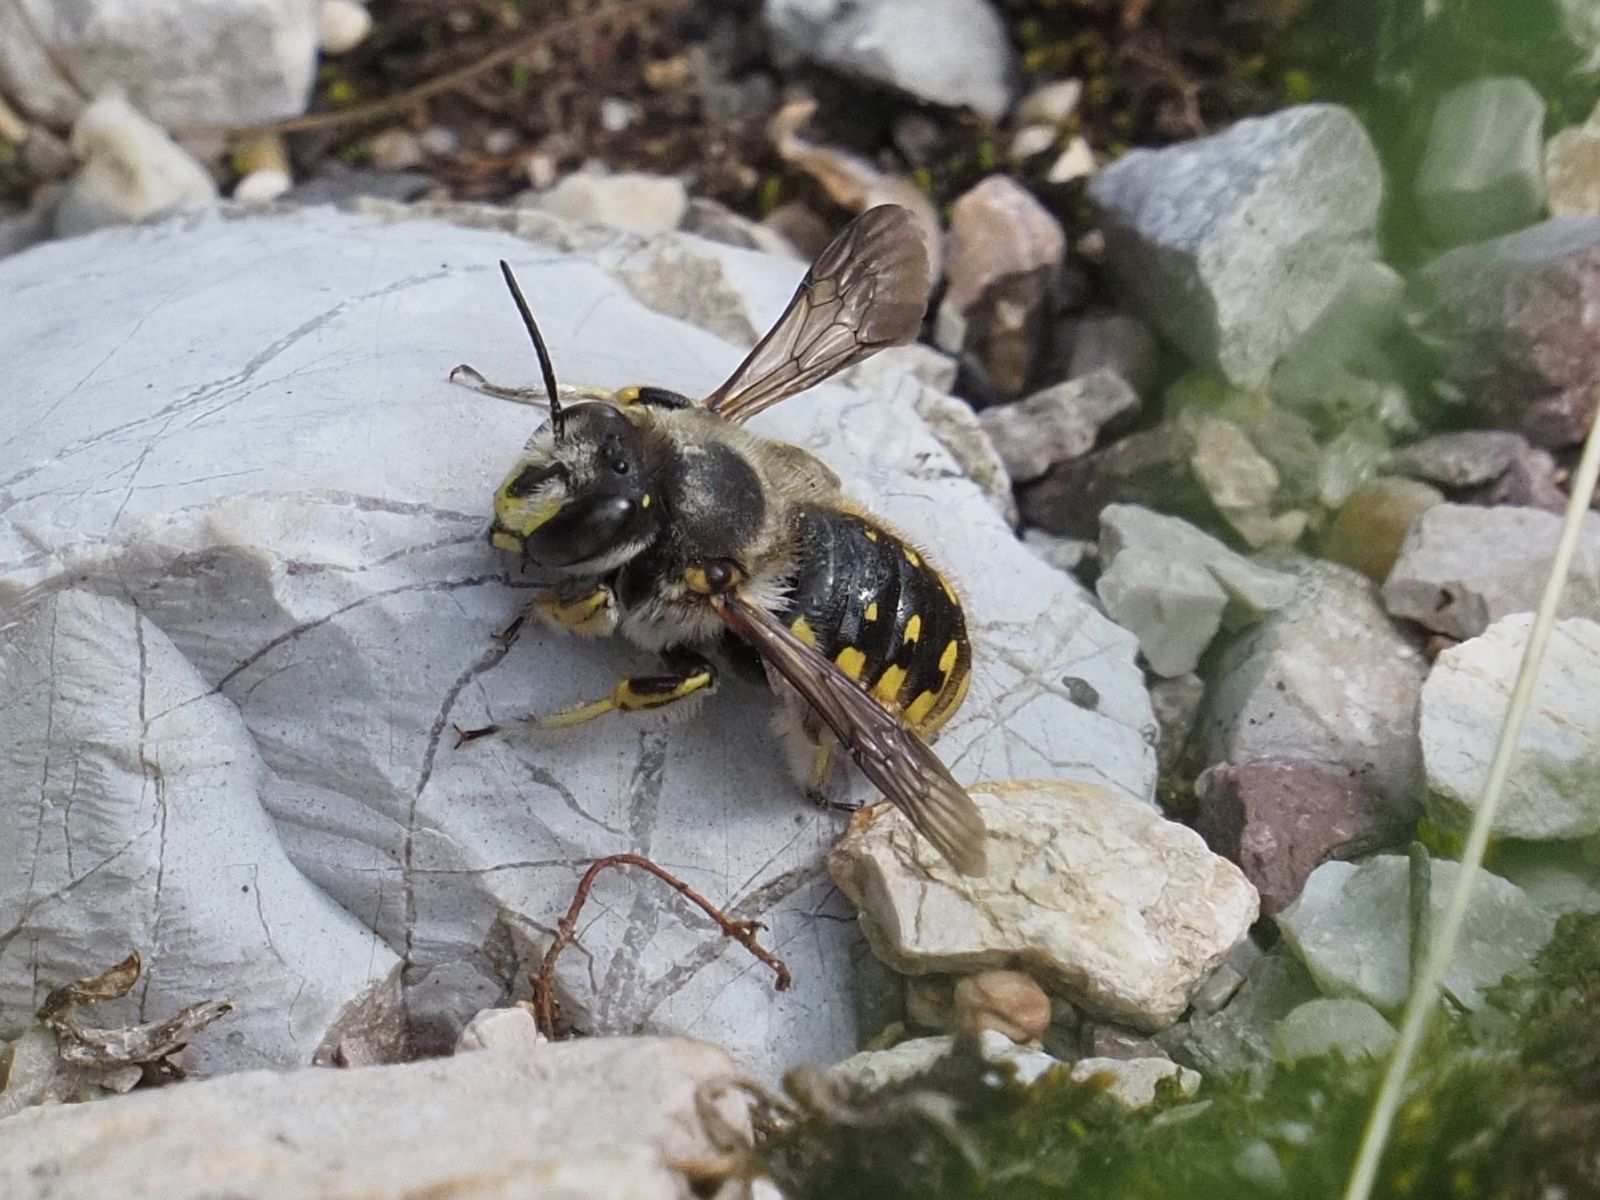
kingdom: Animalia
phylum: Arthropoda
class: Insecta
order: Hymenoptera
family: Megachilidae
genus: Anthidium
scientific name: Anthidium manicatum
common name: Wool carder bee
